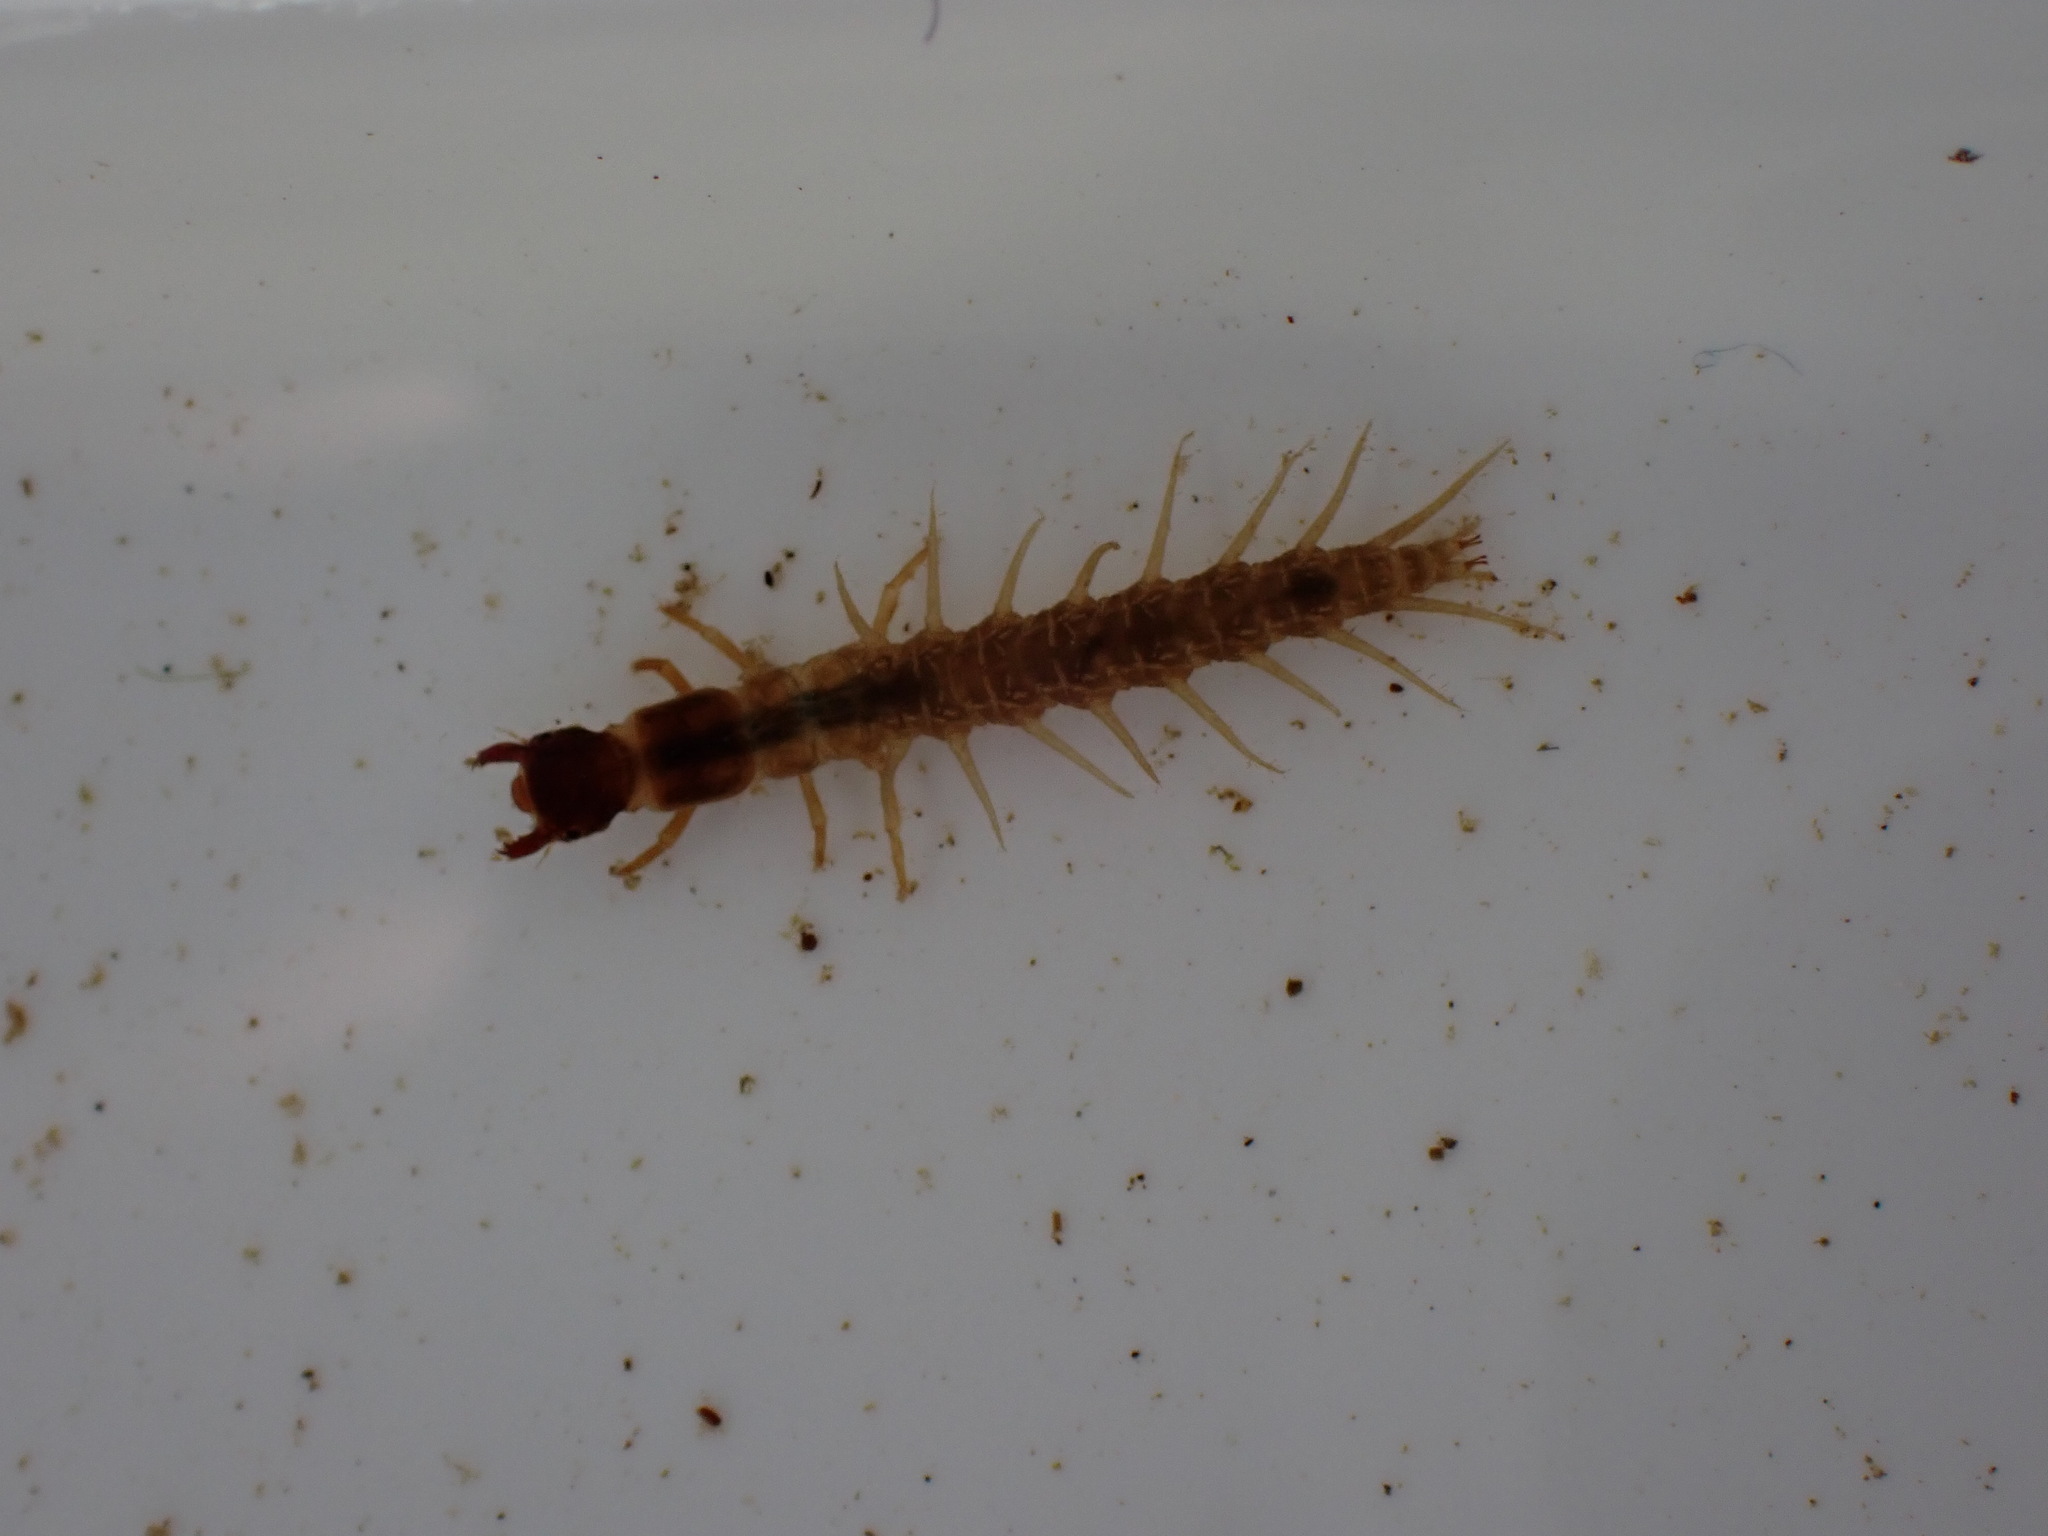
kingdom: Animalia
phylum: Arthropoda
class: Insecta
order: Megaloptera
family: Corydalidae
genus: Archichauliodes
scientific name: Archichauliodes diversus
